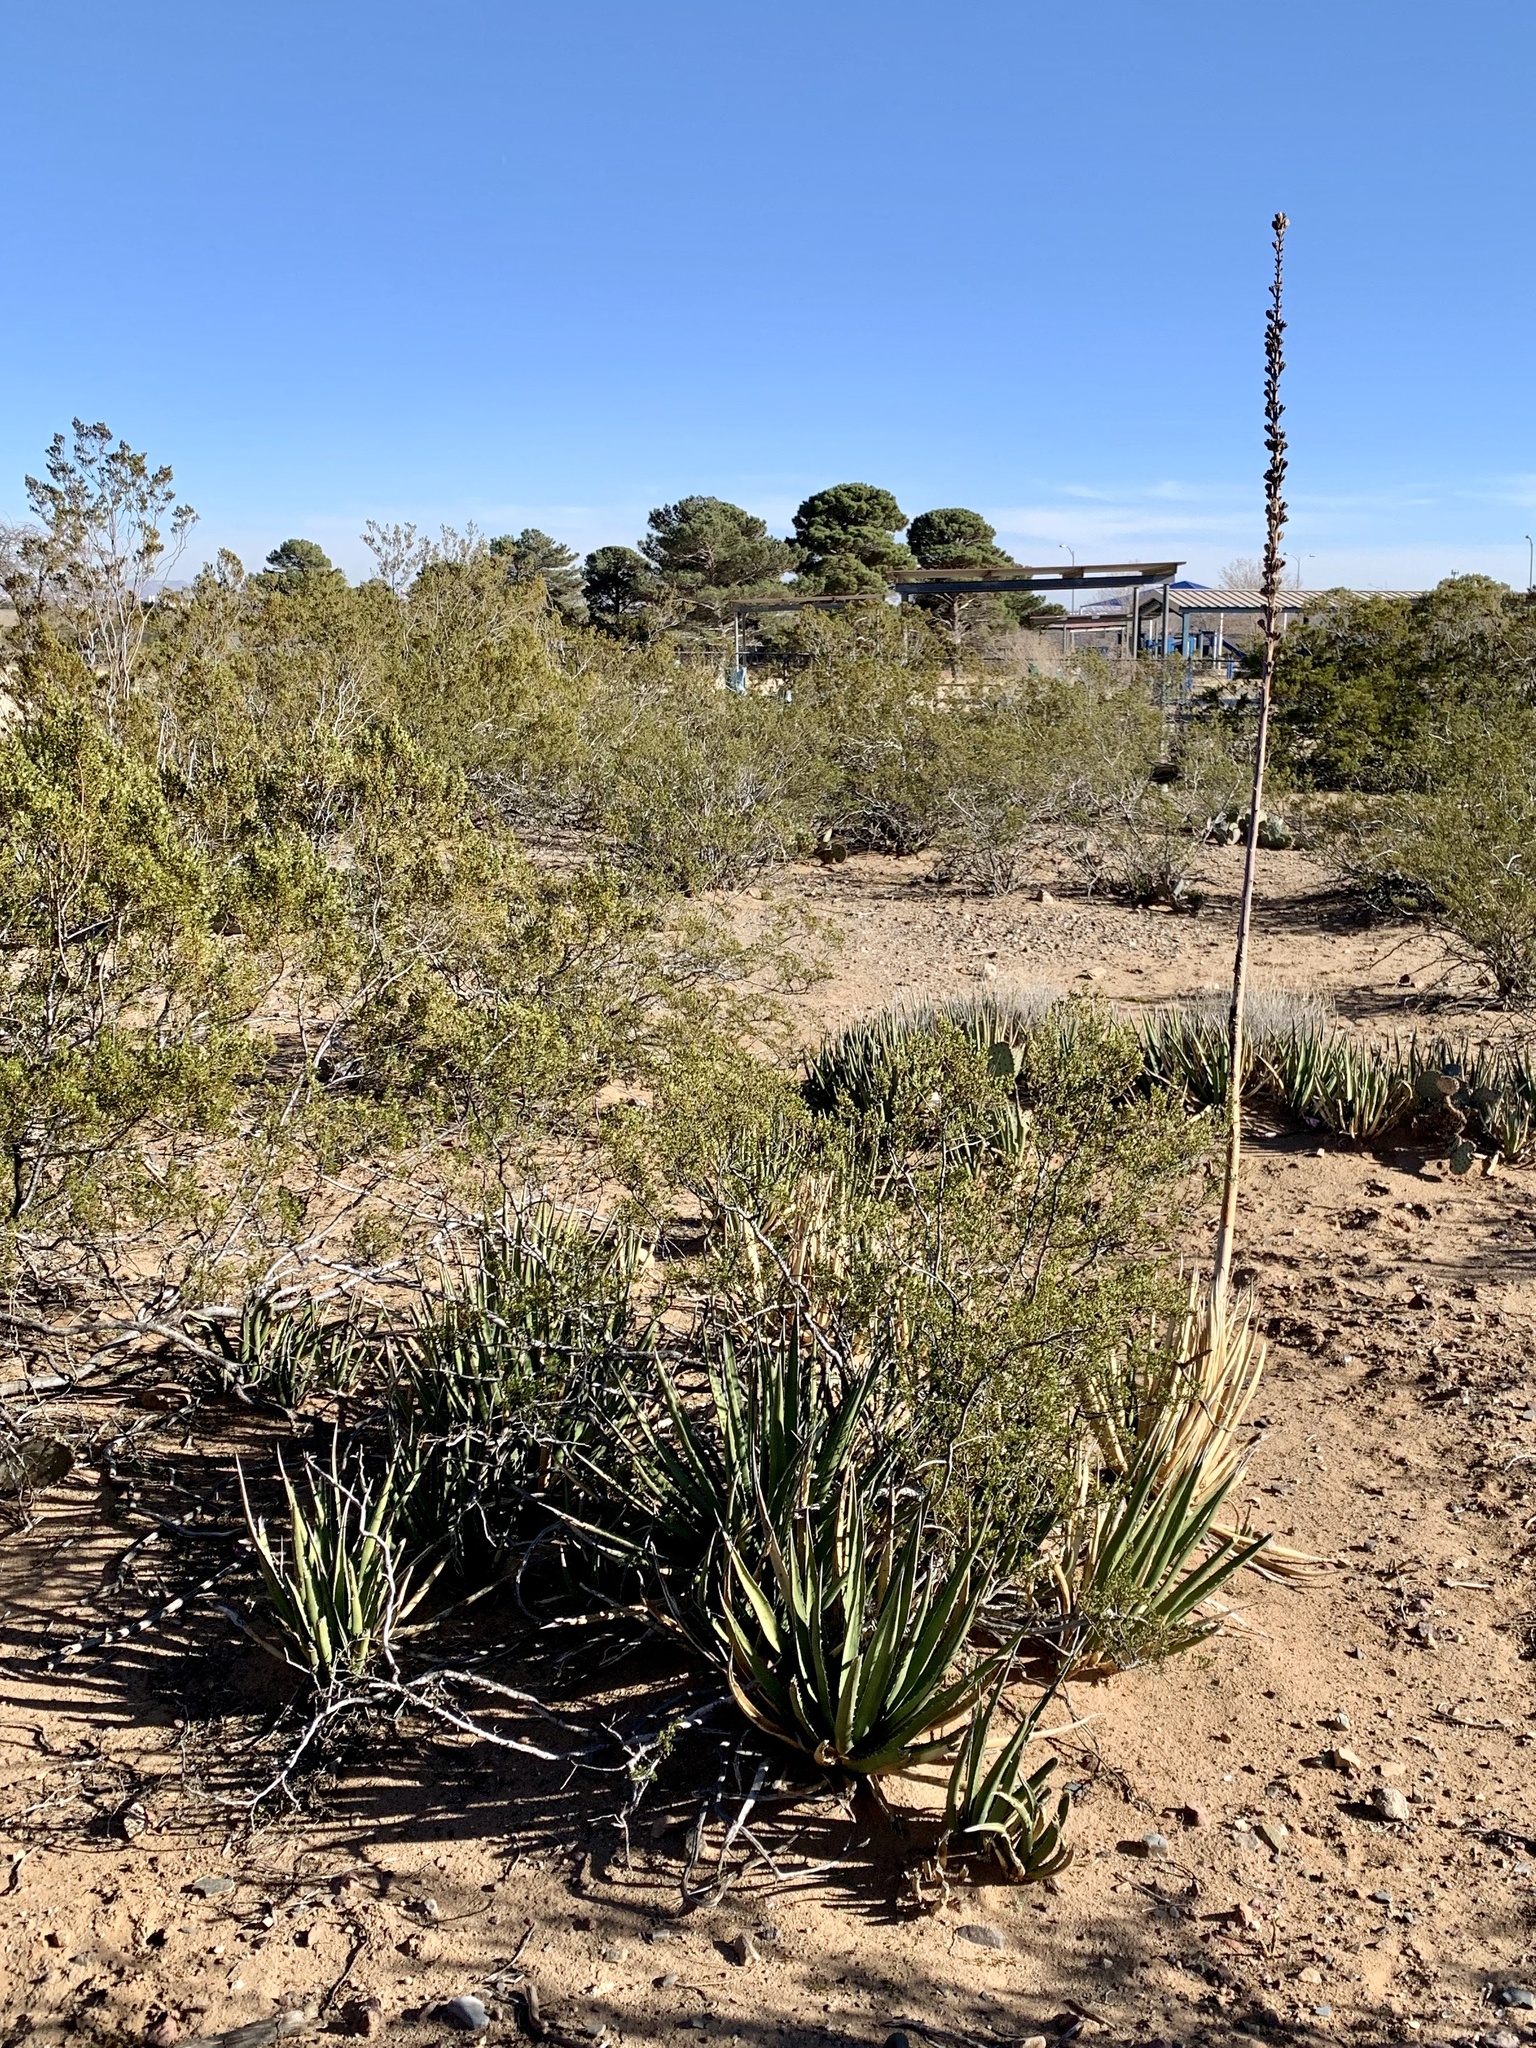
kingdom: Plantae
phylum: Tracheophyta
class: Liliopsida
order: Asparagales
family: Asparagaceae
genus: Agave
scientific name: Agave lechuguilla
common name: Lecheguilla agave
